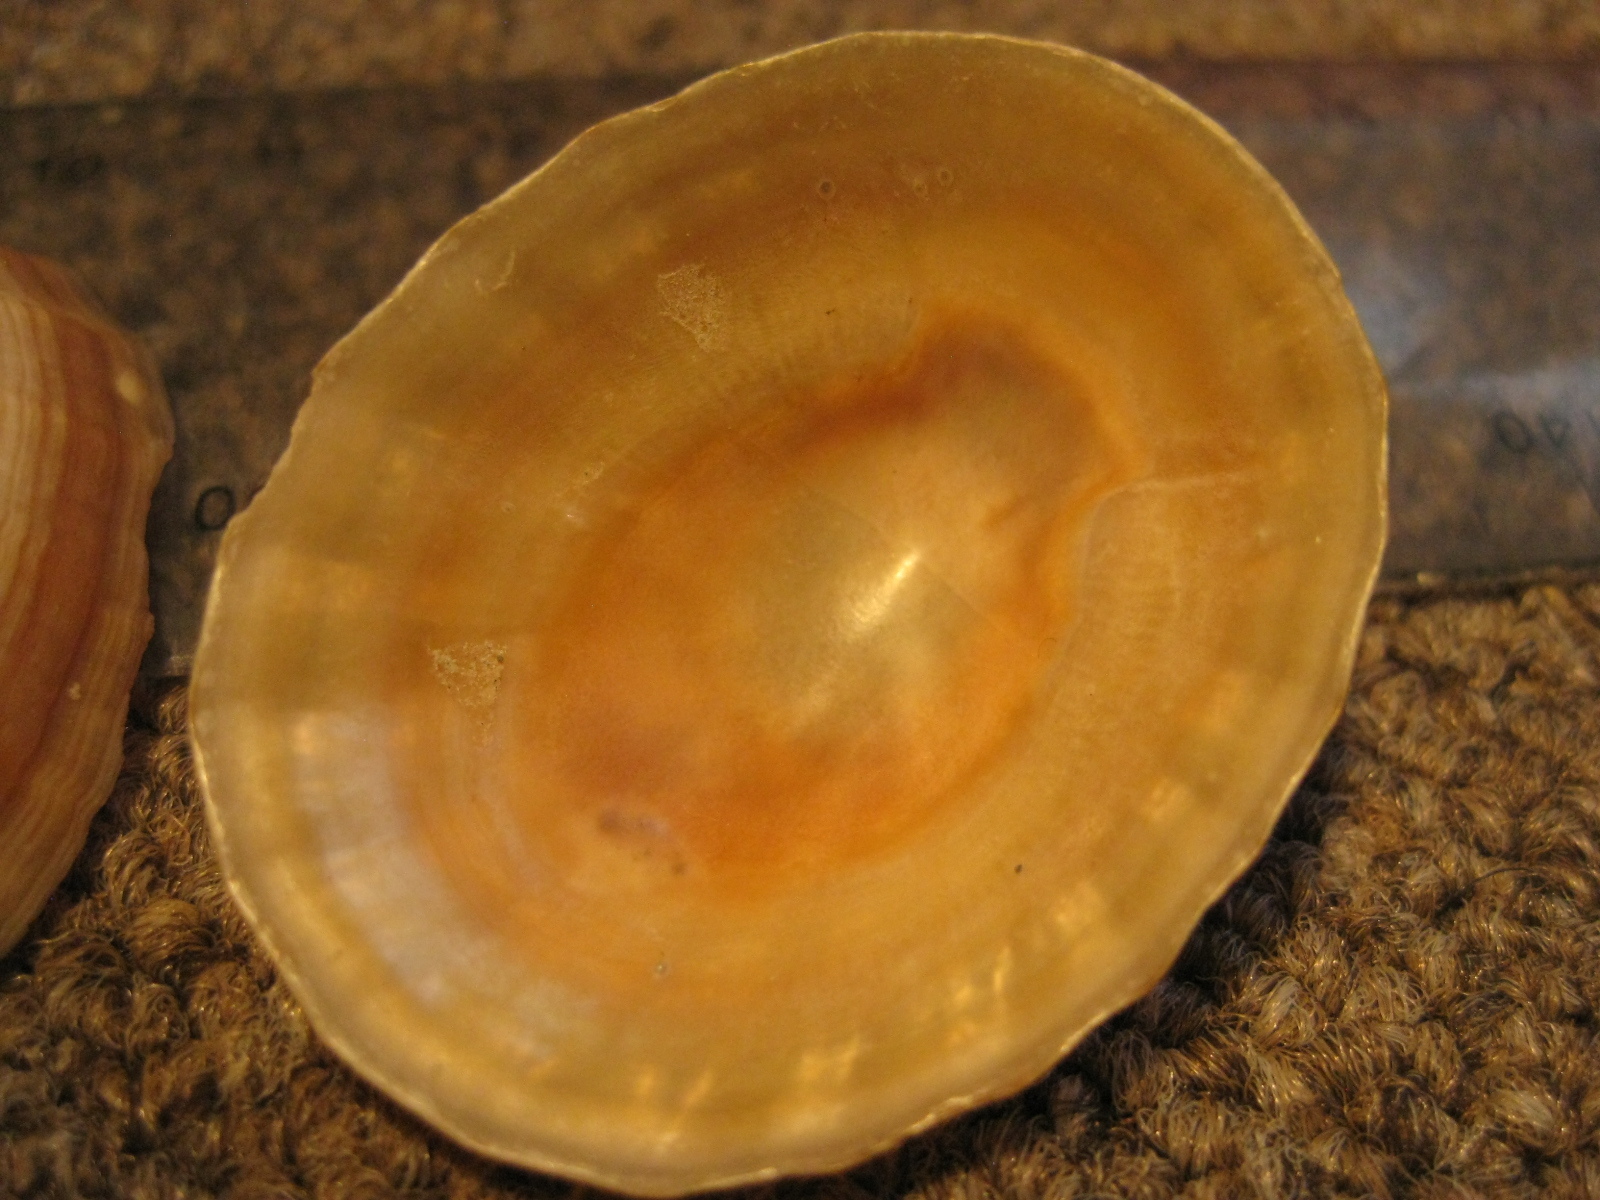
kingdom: Animalia
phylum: Mollusca
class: Gastropoda
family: Nacellidae
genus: Cellana
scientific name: Cellana flava
